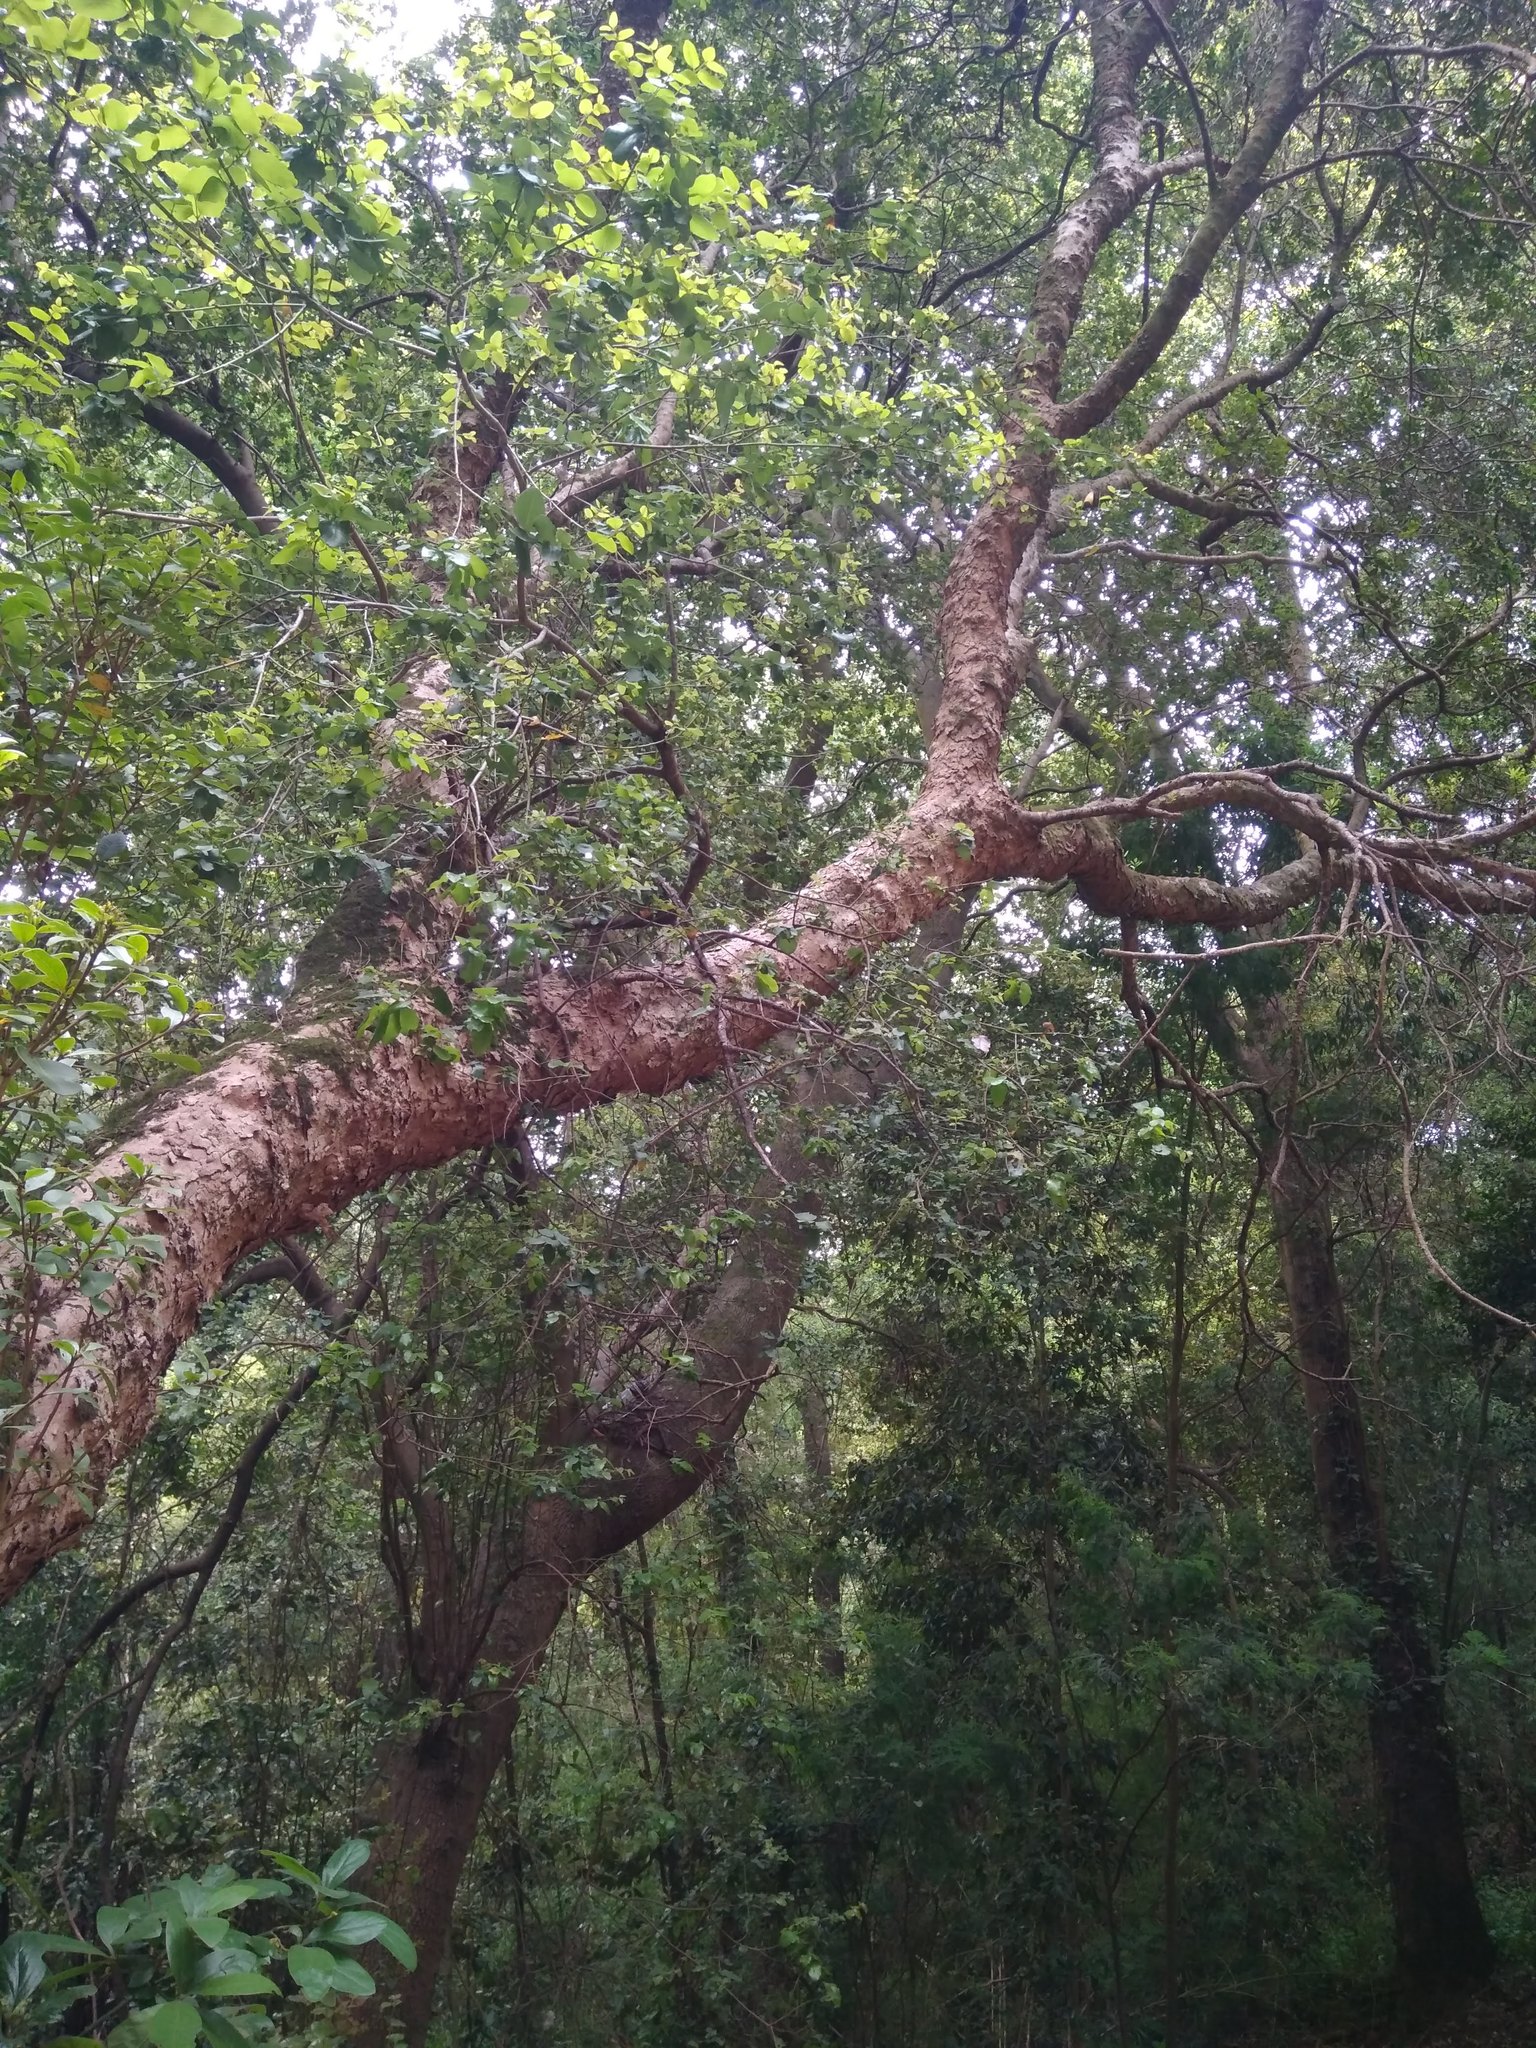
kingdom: Plantae
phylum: Tracheophyta
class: Magnoliopsida
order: Sapindales
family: Anacardiaceae
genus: Lithraea
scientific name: Lithraea caustica
